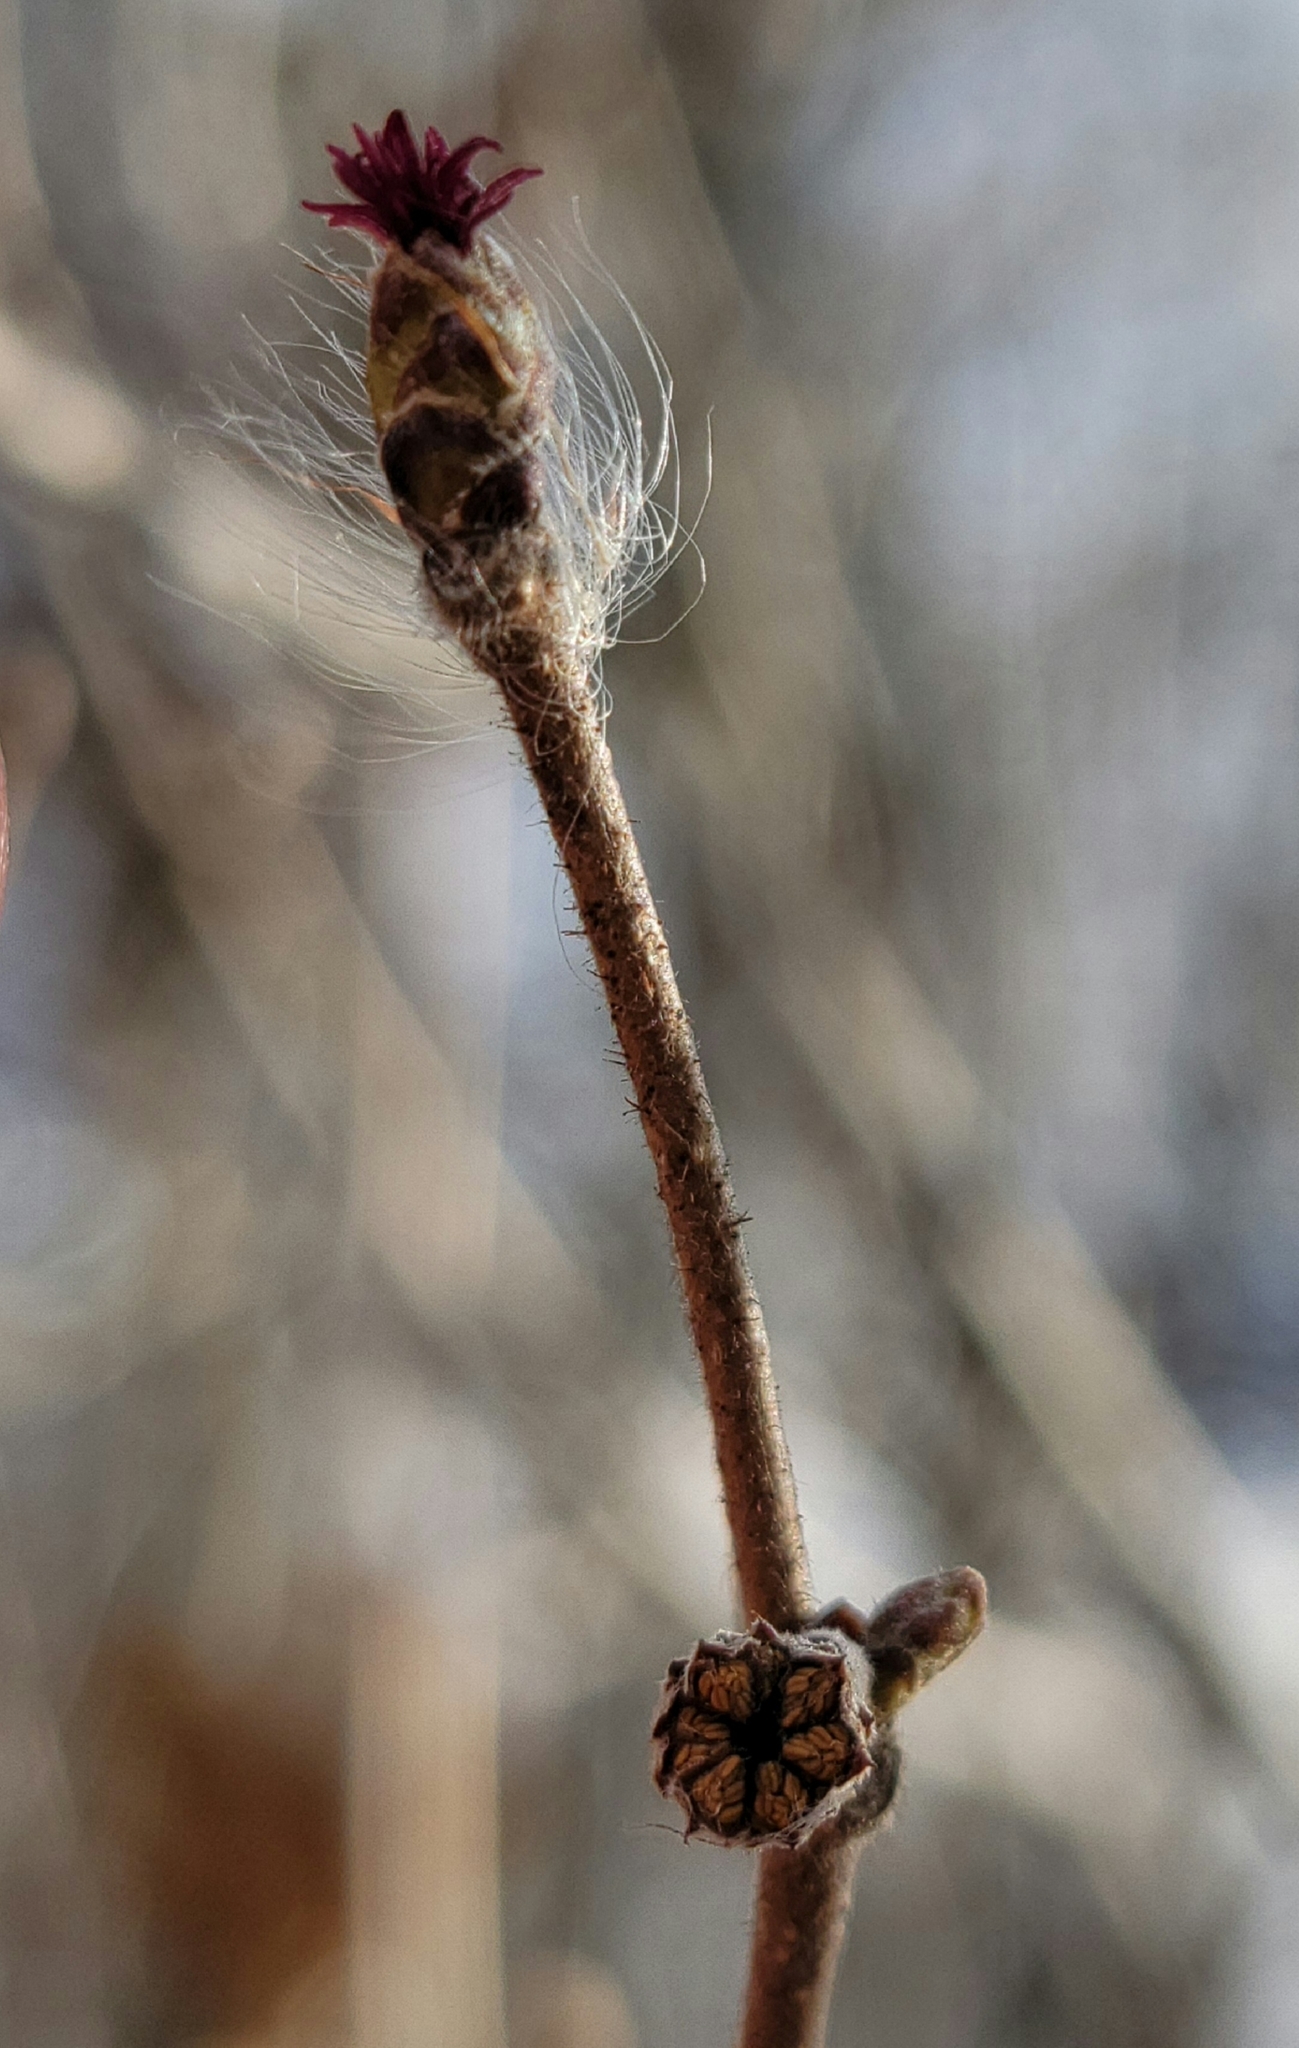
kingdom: Plantae
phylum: Tracheophyta
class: Magnoliopsida
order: Fagales
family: Betulaceae
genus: Corylus
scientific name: Corylus americana
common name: American hazel
